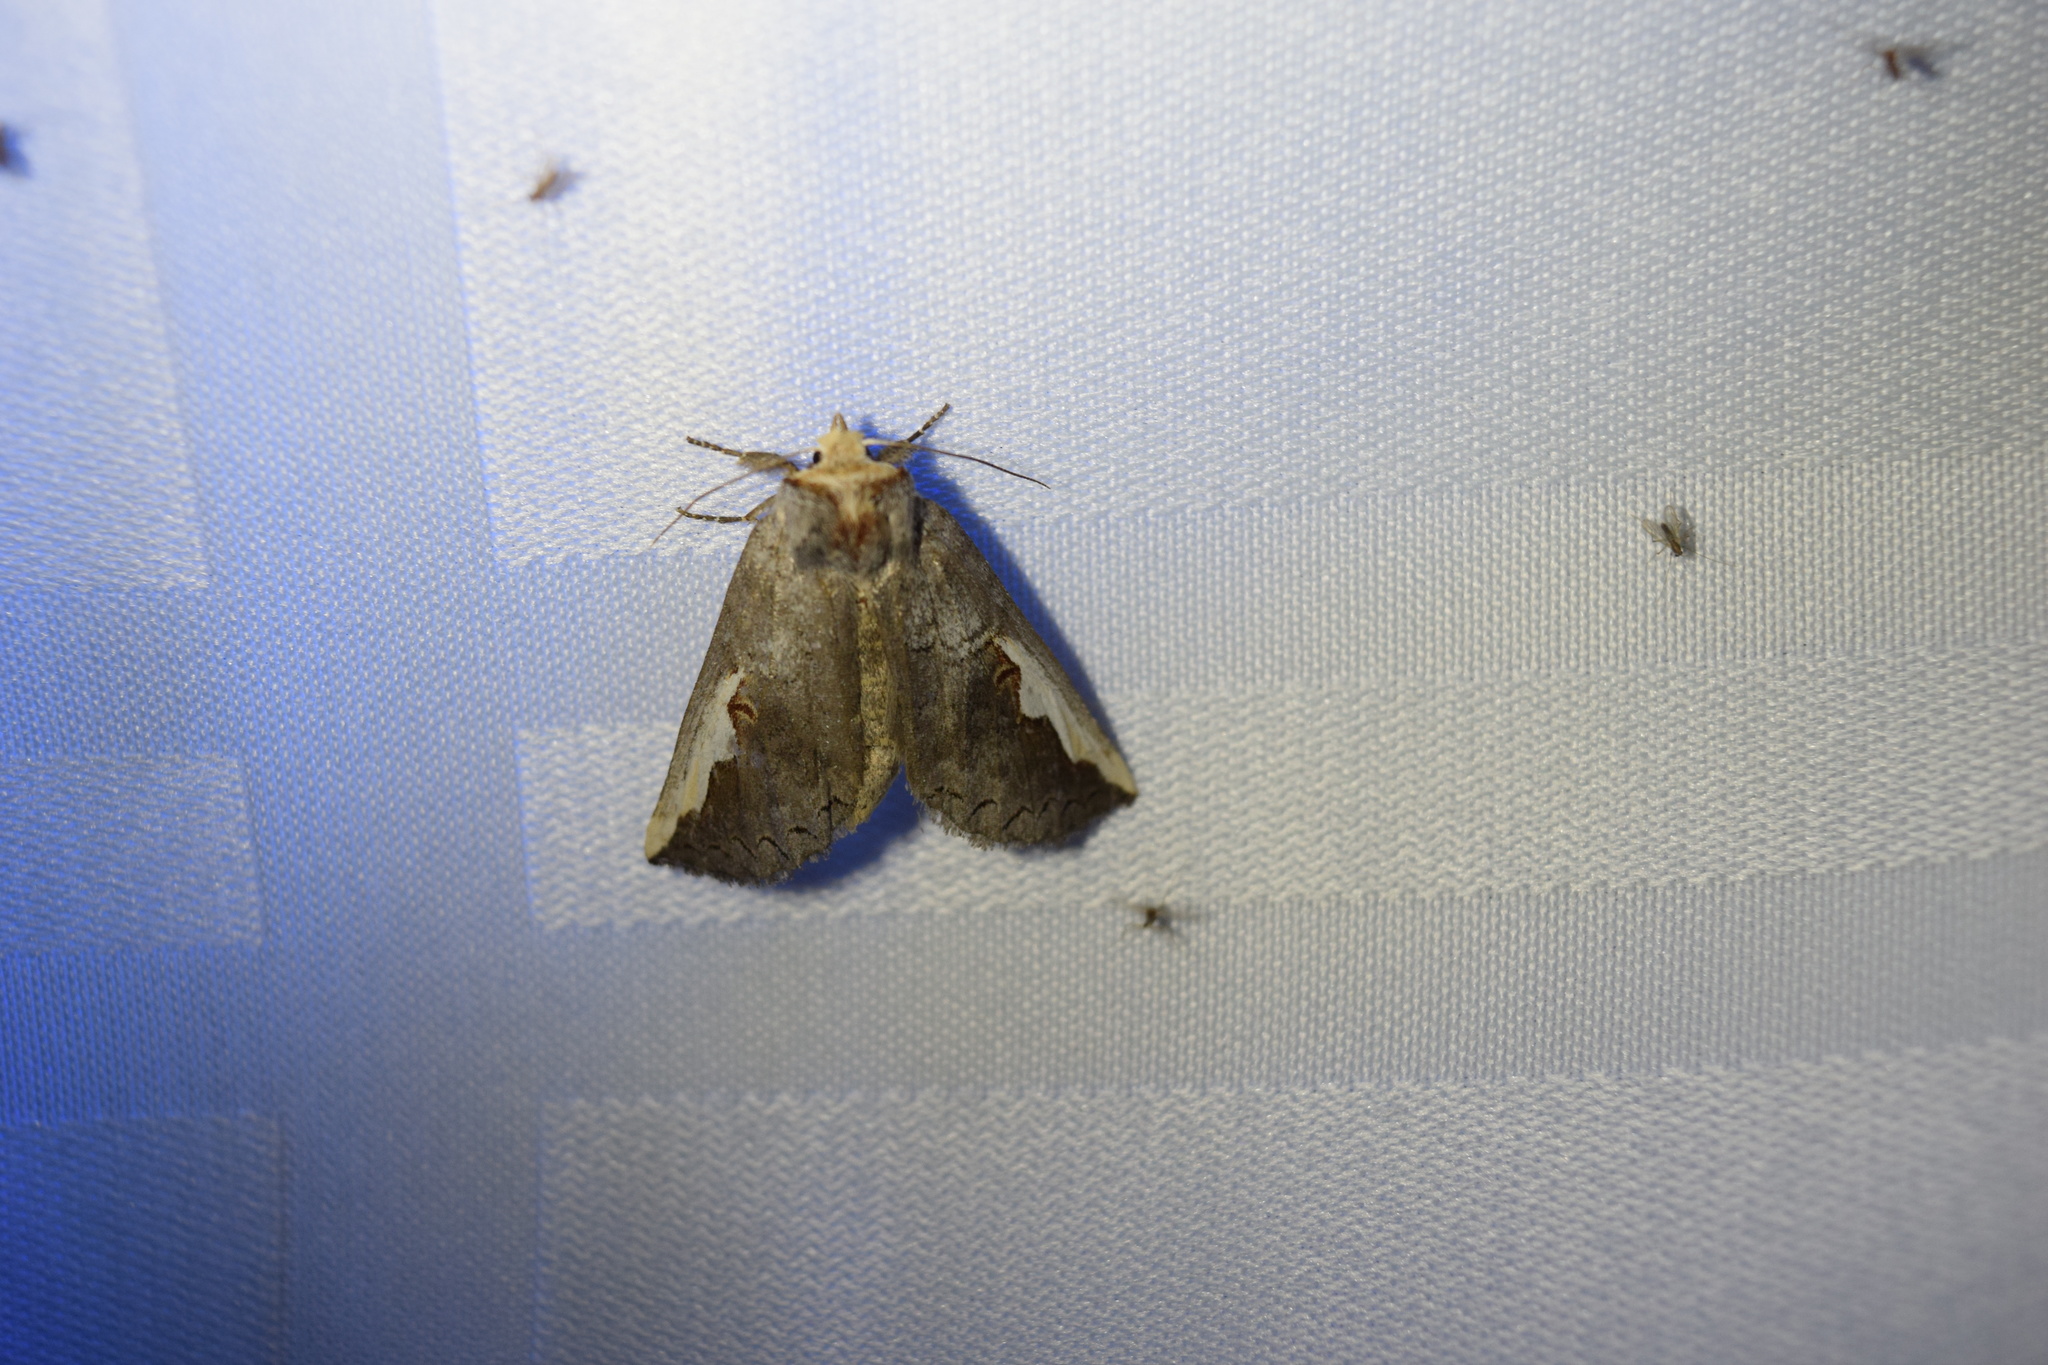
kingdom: Animalia
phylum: Arthropoda
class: Insecta
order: Lepidoptera
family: Notodontidae
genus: Symmerista
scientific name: Symmerista
